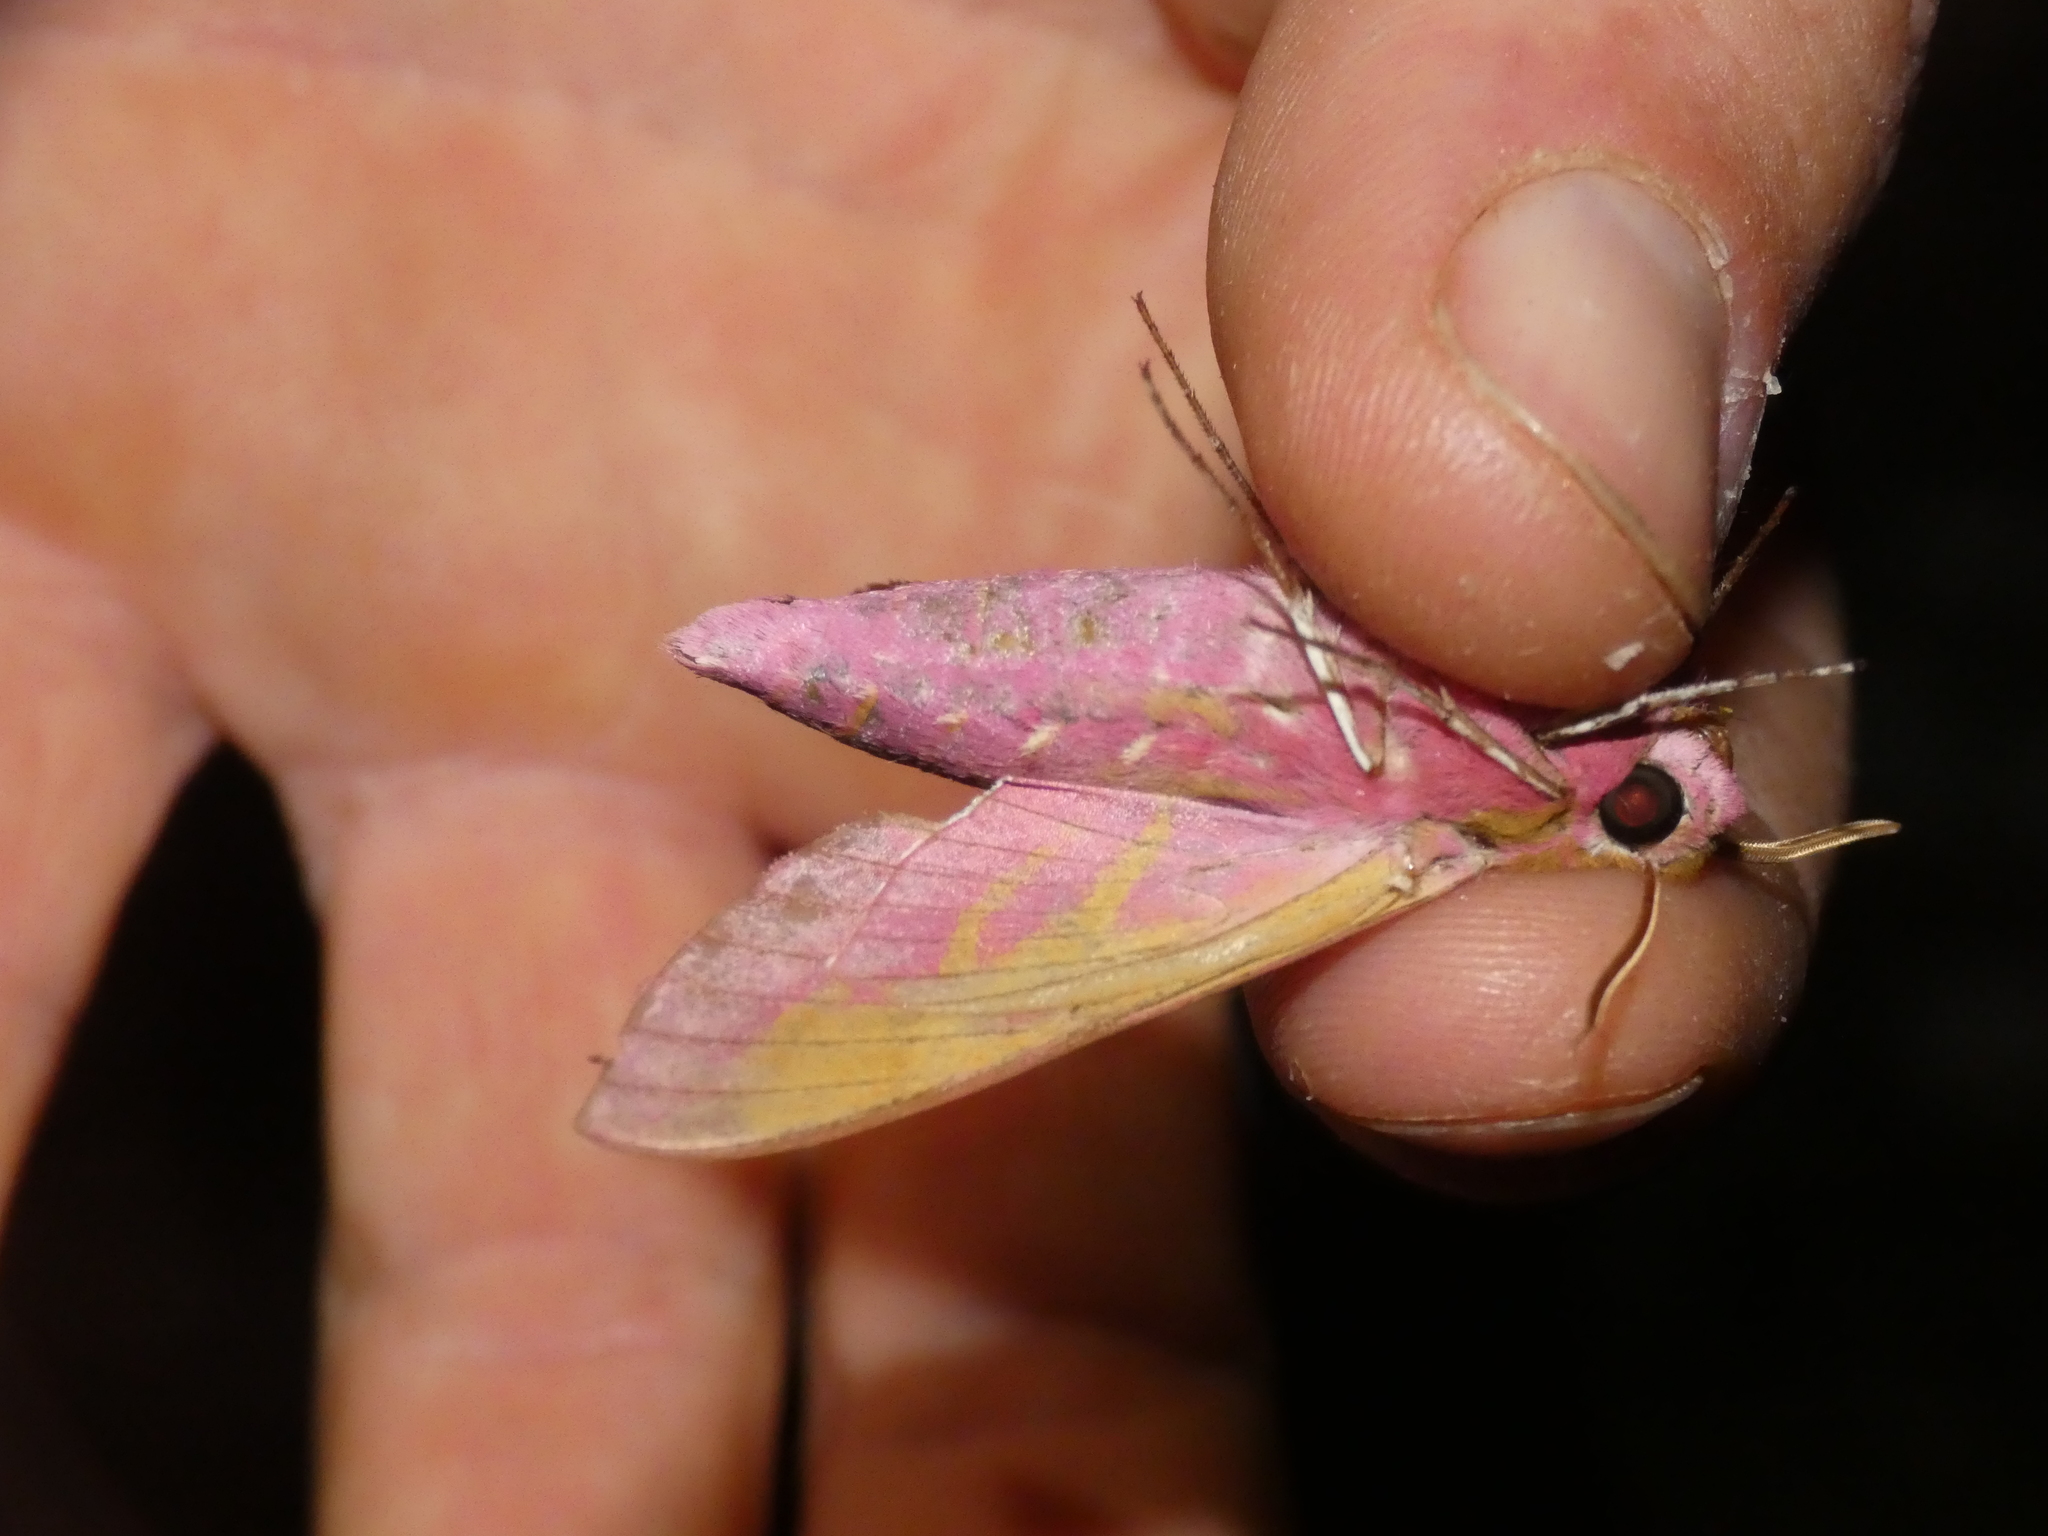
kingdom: Animalia
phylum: Arthropoda
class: Insecta
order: Lepidoptera
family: Sphingidae
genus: Deilephila
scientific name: Deilephila elpenor
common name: Elephant hawk-moth
